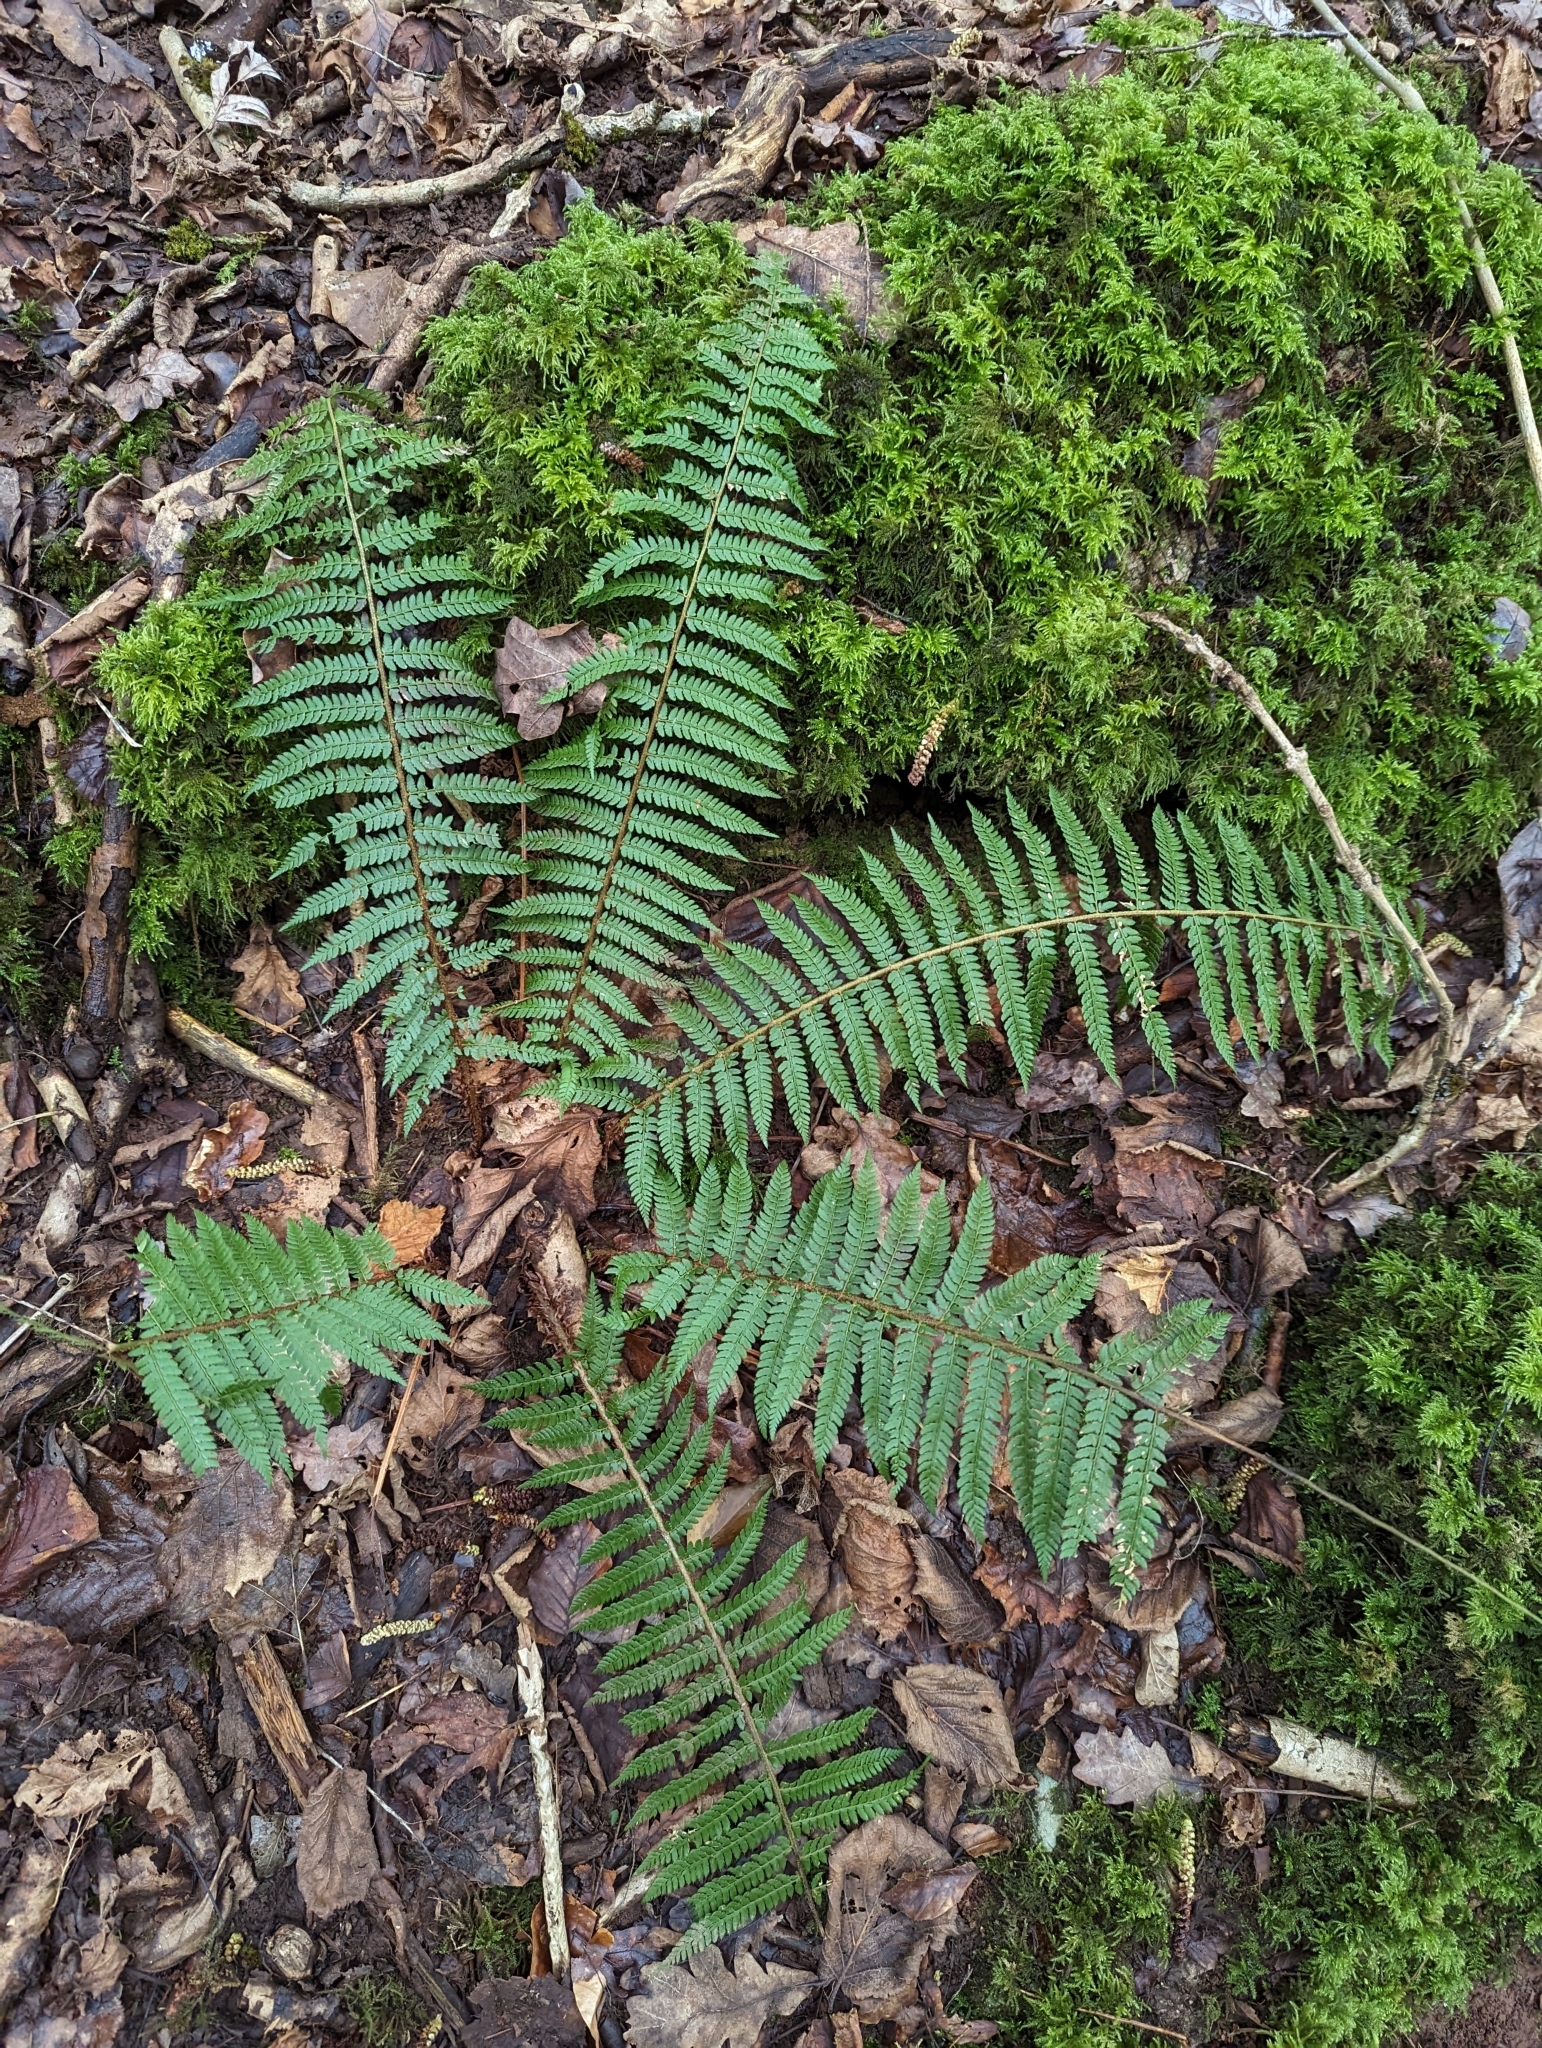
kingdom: Plantae
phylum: Tracheophyta
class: Polypodiopsida
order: Polypodiales
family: Dryopteridaceae
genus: Polystichum
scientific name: Polystichum setiferum
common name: Soft shield-fern
